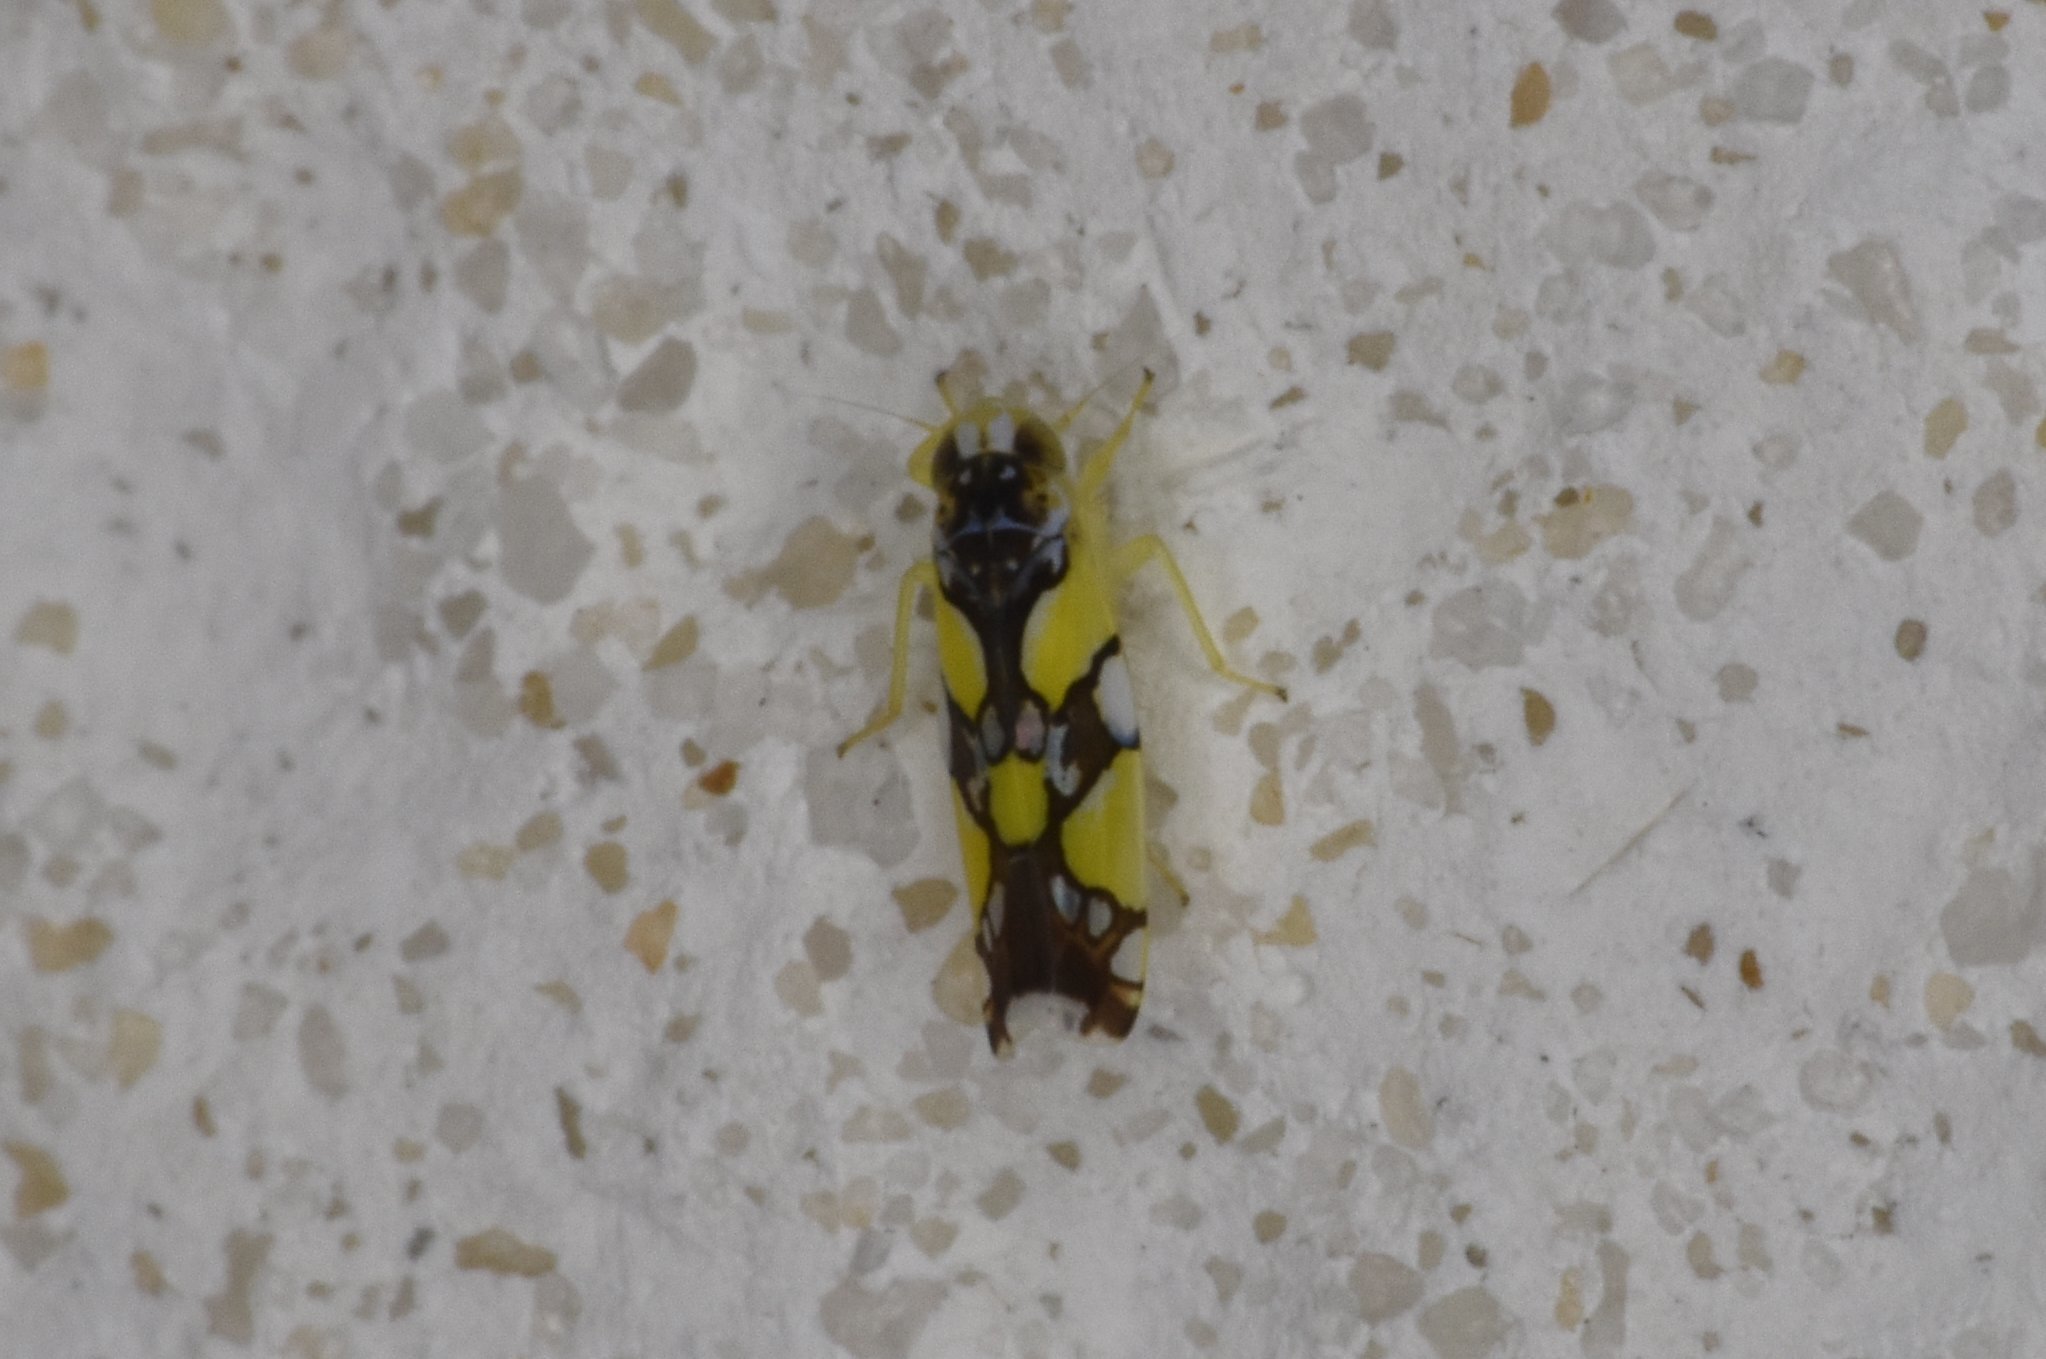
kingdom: Animalia
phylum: Arthropoda
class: Insecta
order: Hemiptera
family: Cicadellidae
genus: Protalebrella
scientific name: Protalebrella brasiliensis
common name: Brasilian leafhopper
